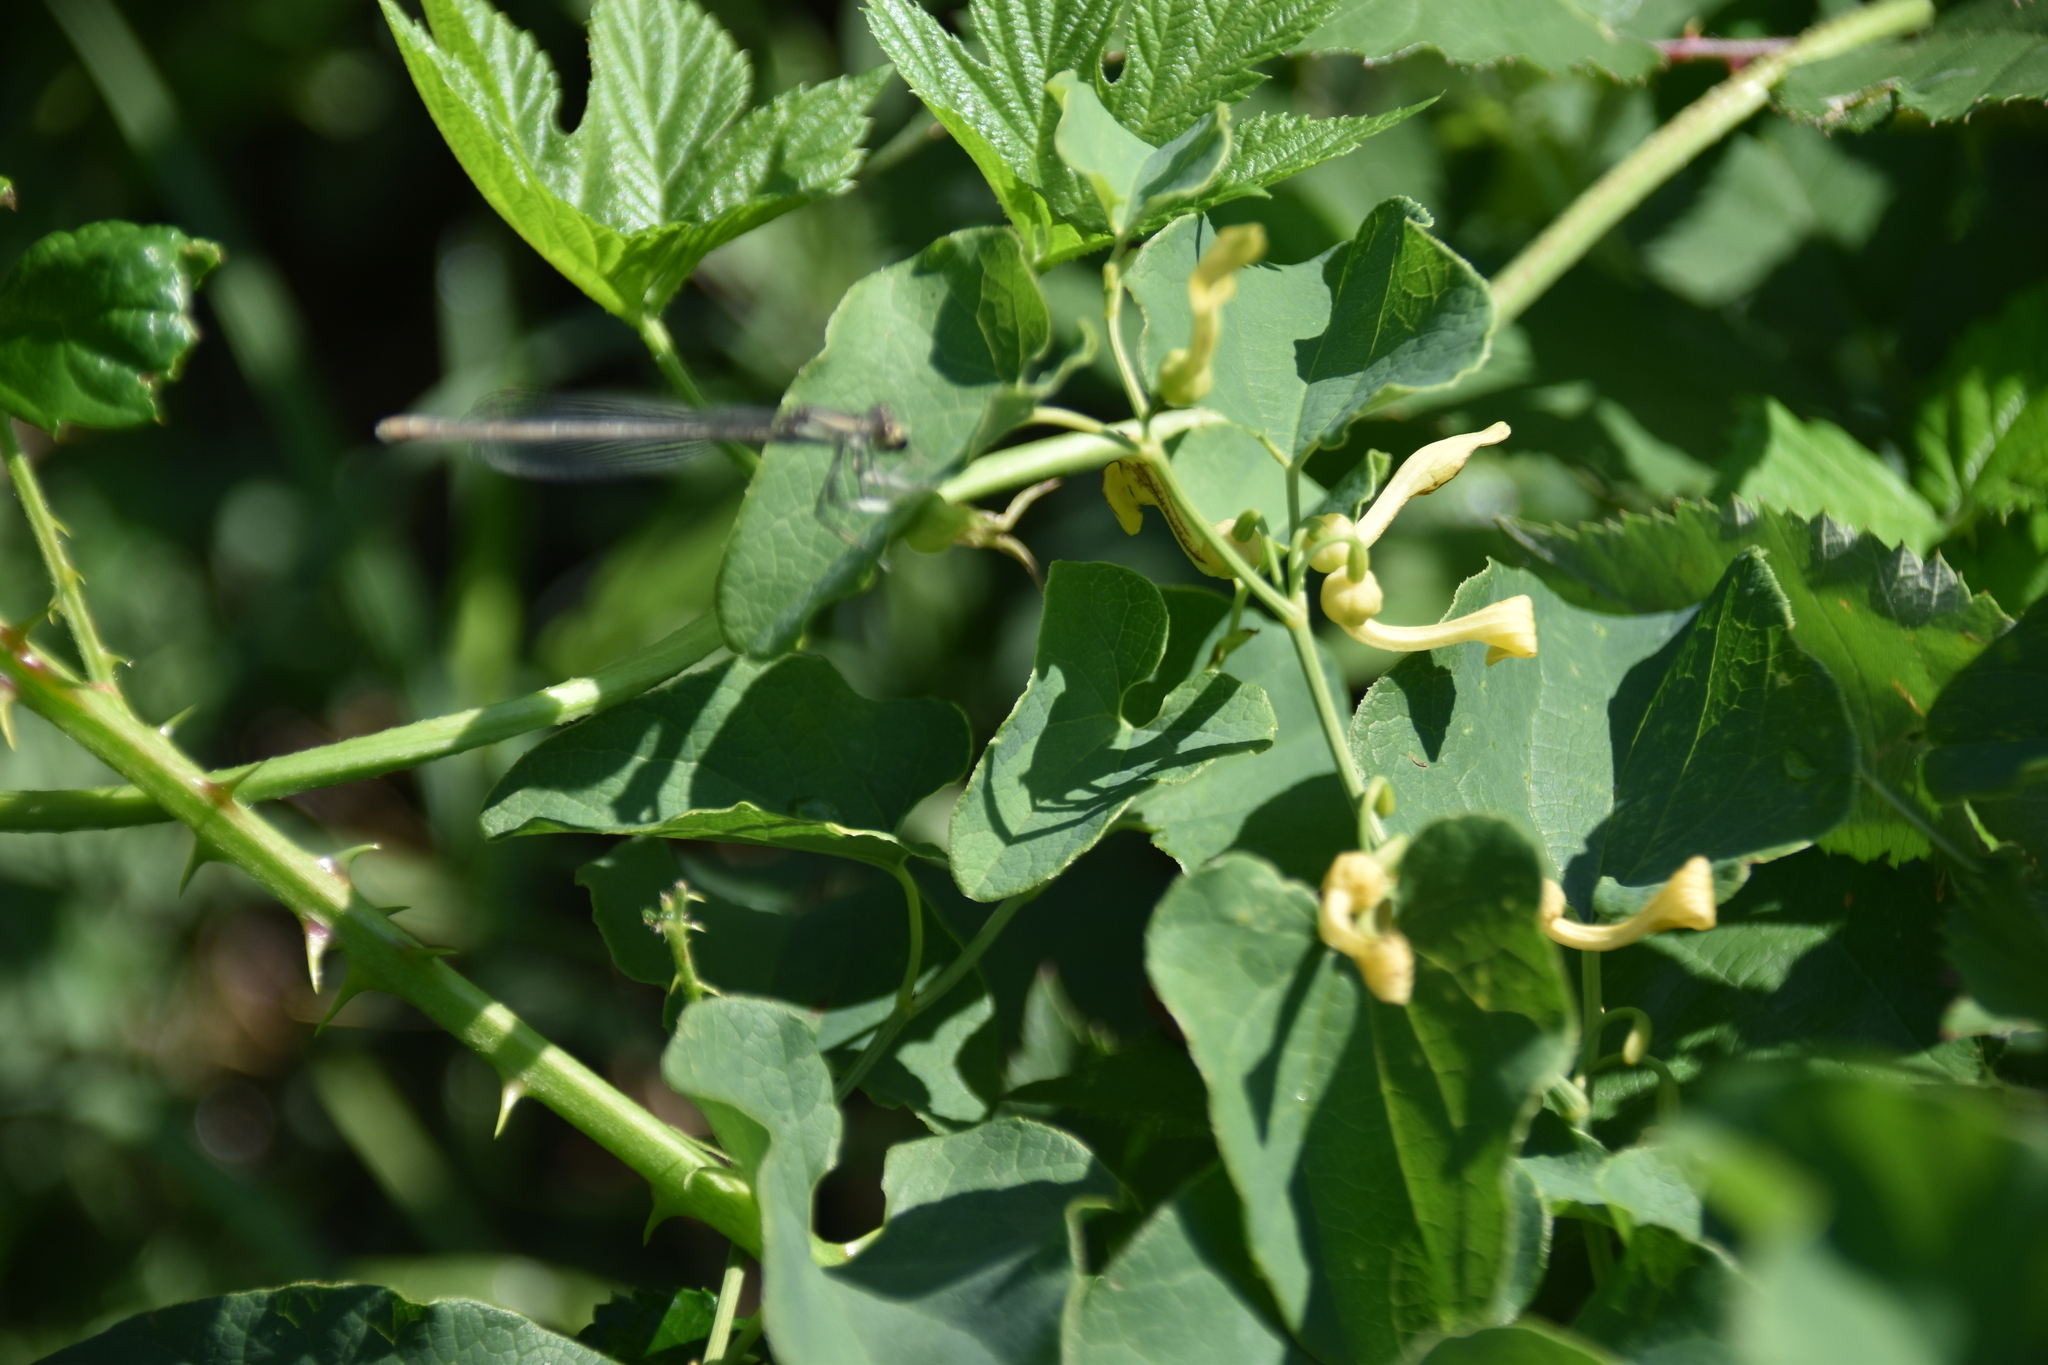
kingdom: Plantae
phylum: Tracheophyta
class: Magnoliopsida
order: Piperales
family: Aristolochiaceae
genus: Aristolochia
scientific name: Aristolochia clematitis
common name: Birthwort
